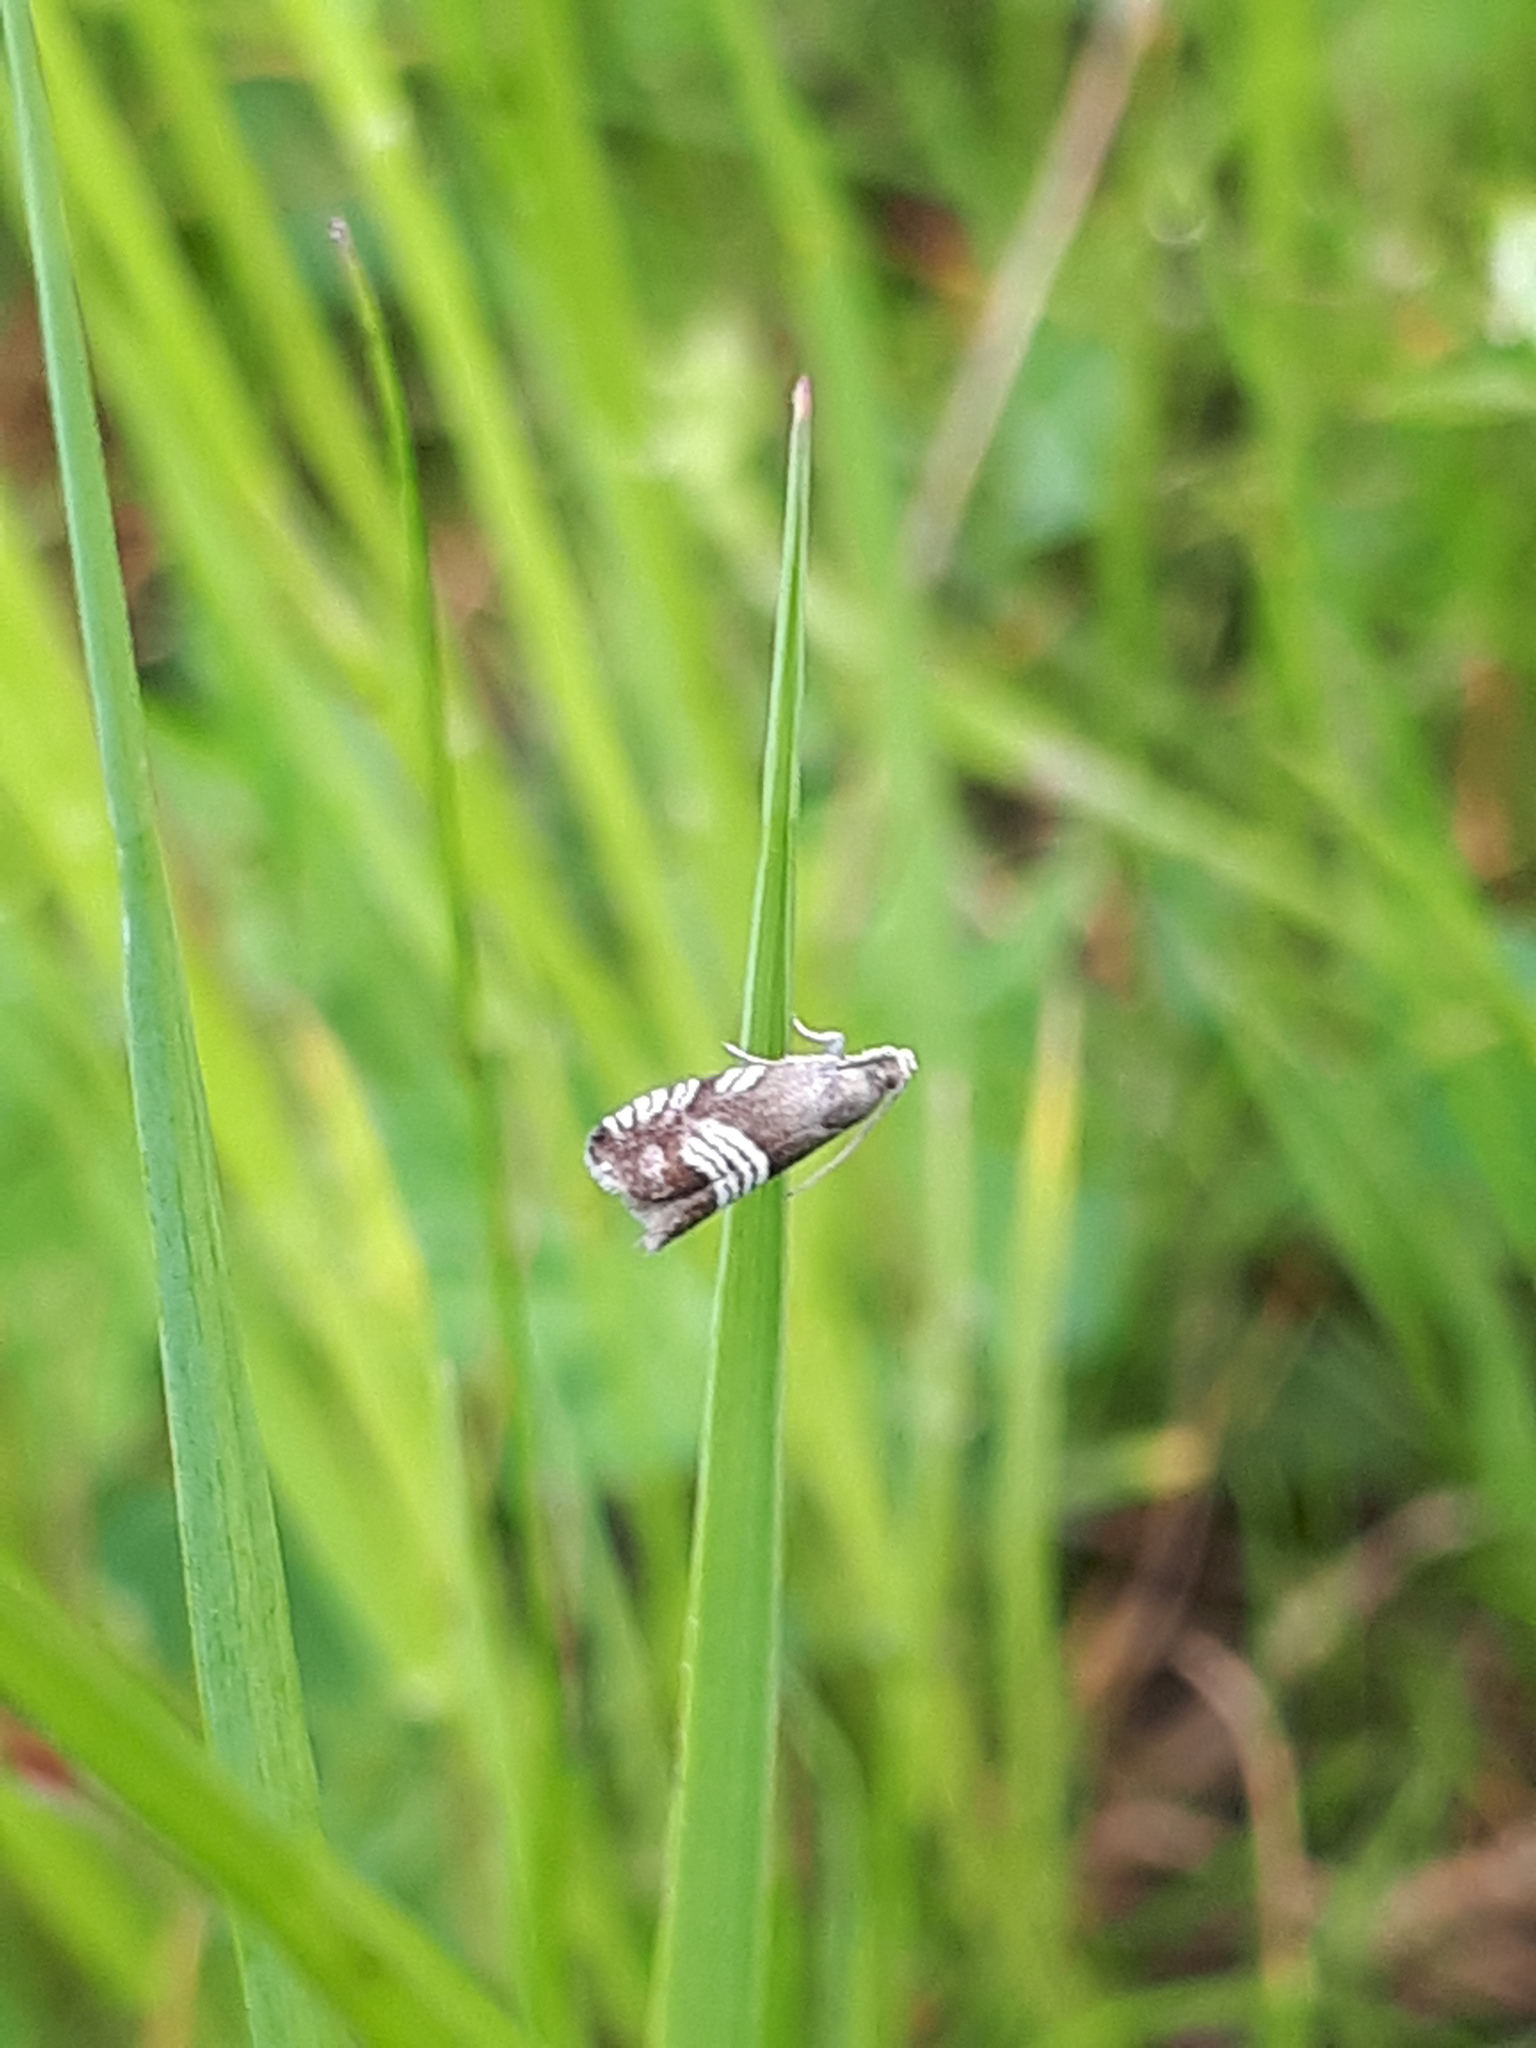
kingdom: Animalia
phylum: Arthropoda
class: Insecta
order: Lepidoptera
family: Tortricidae
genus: Grapholita
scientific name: Grapholita compositella
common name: Triple-stripe piercer
